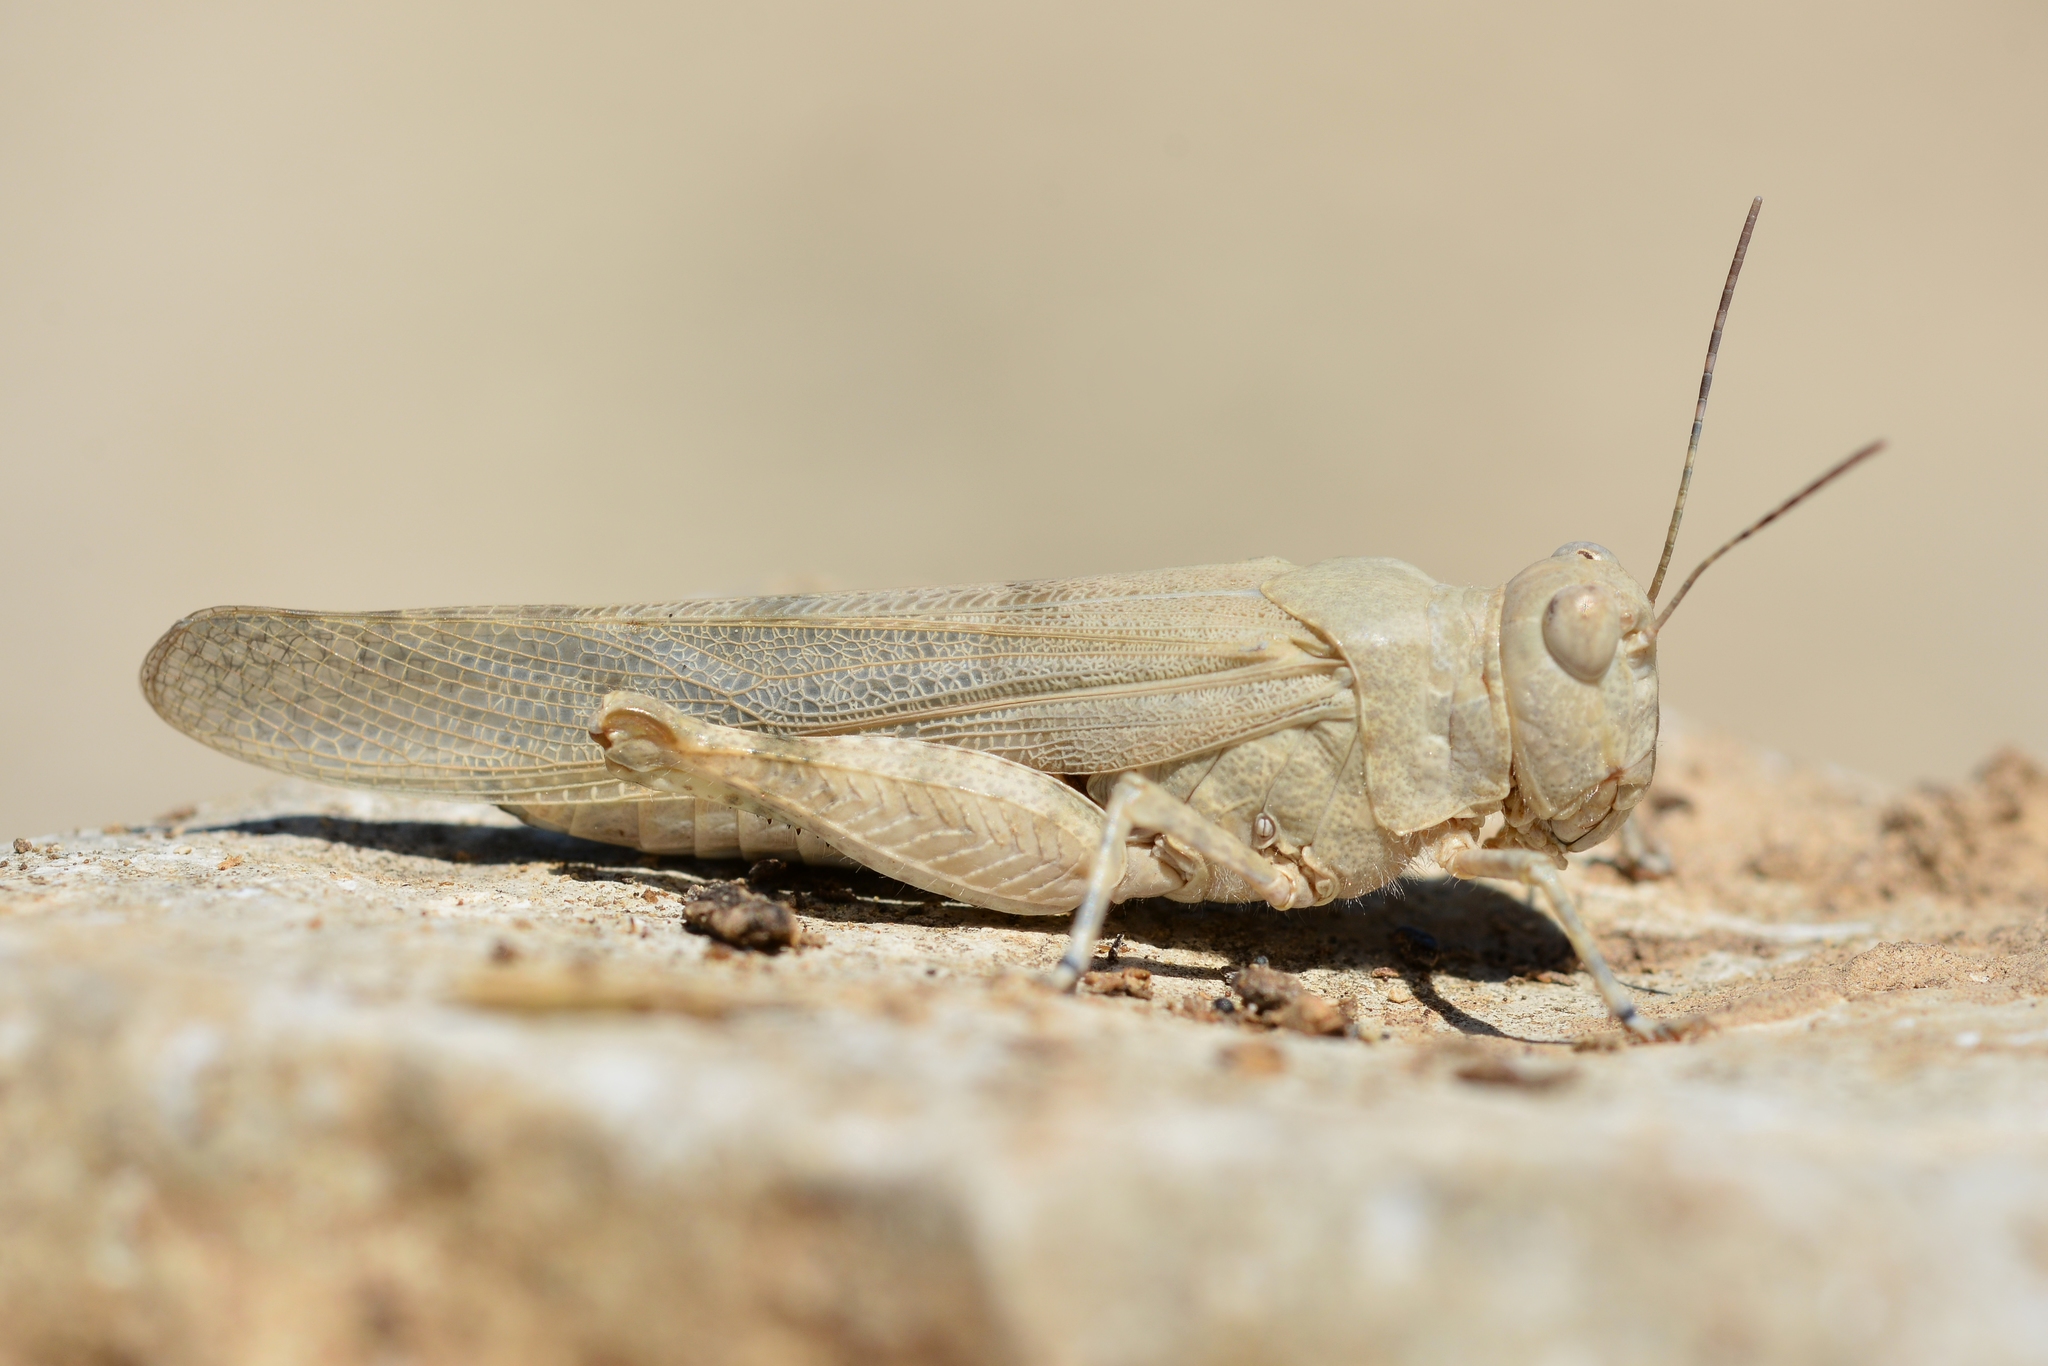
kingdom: Animalia
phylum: Arthropoda
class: Insecta
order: Orthoptera
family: Acrididae
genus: Sphingonotus
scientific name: Sphingonotus caerulans
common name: Blue-winged locust
